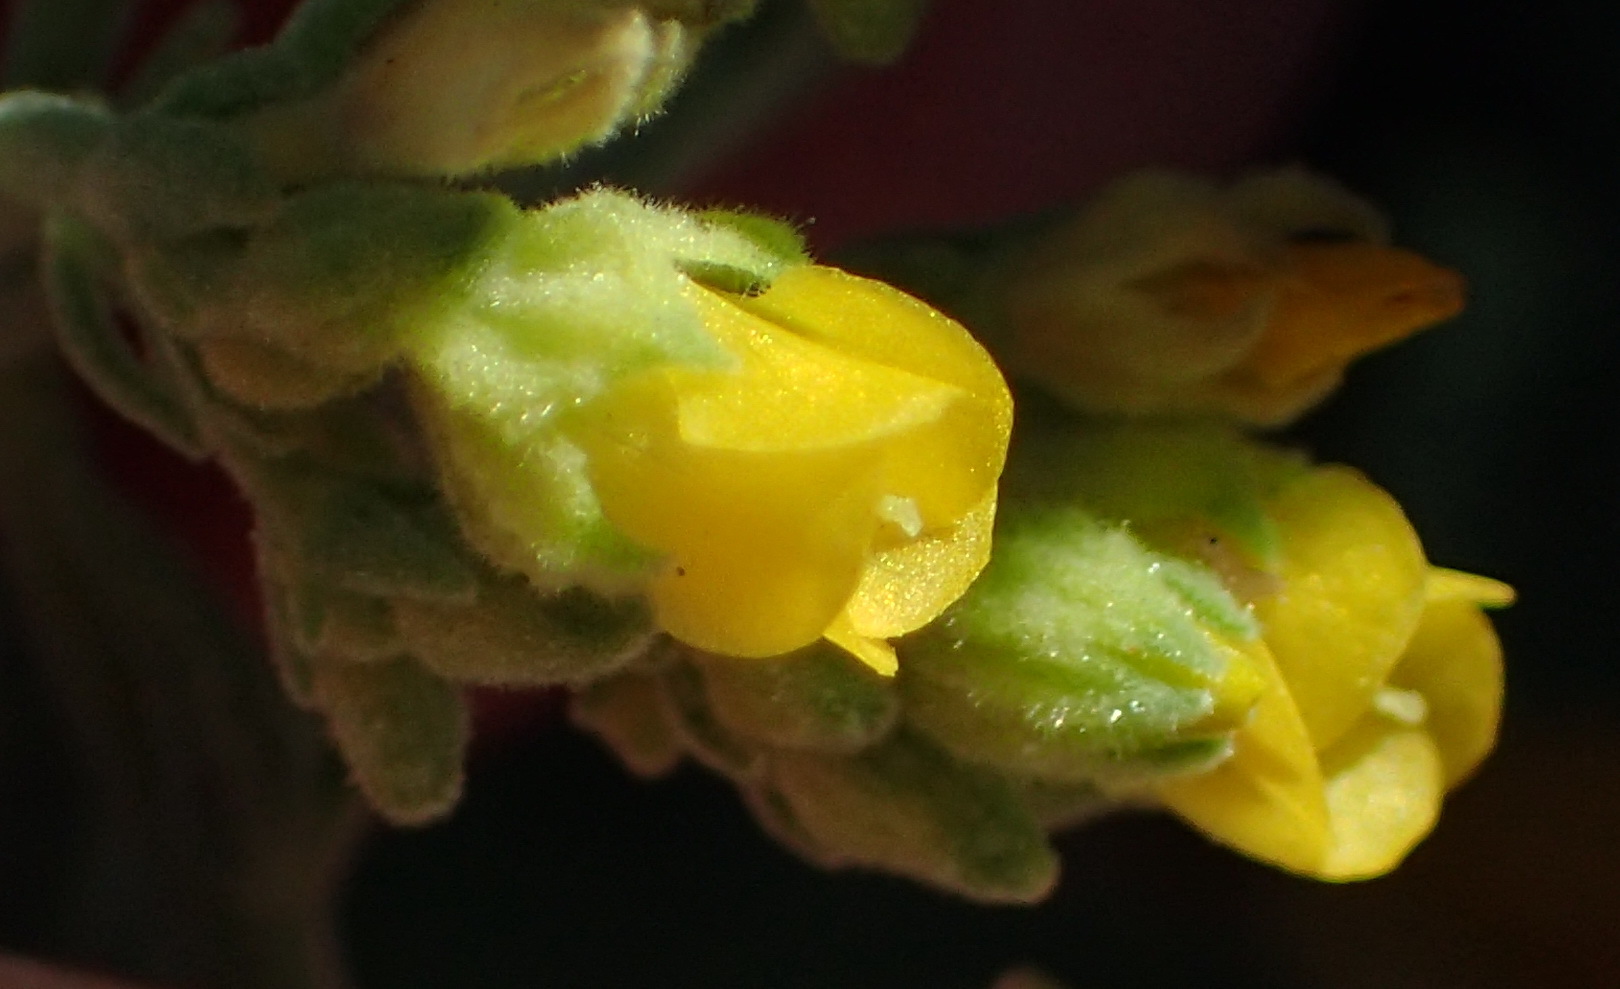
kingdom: Plantae
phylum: Tracheophyta
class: Magnoliopsida
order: Malvales
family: Malvaceae
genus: Hermannia
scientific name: Hermannia holosericea
